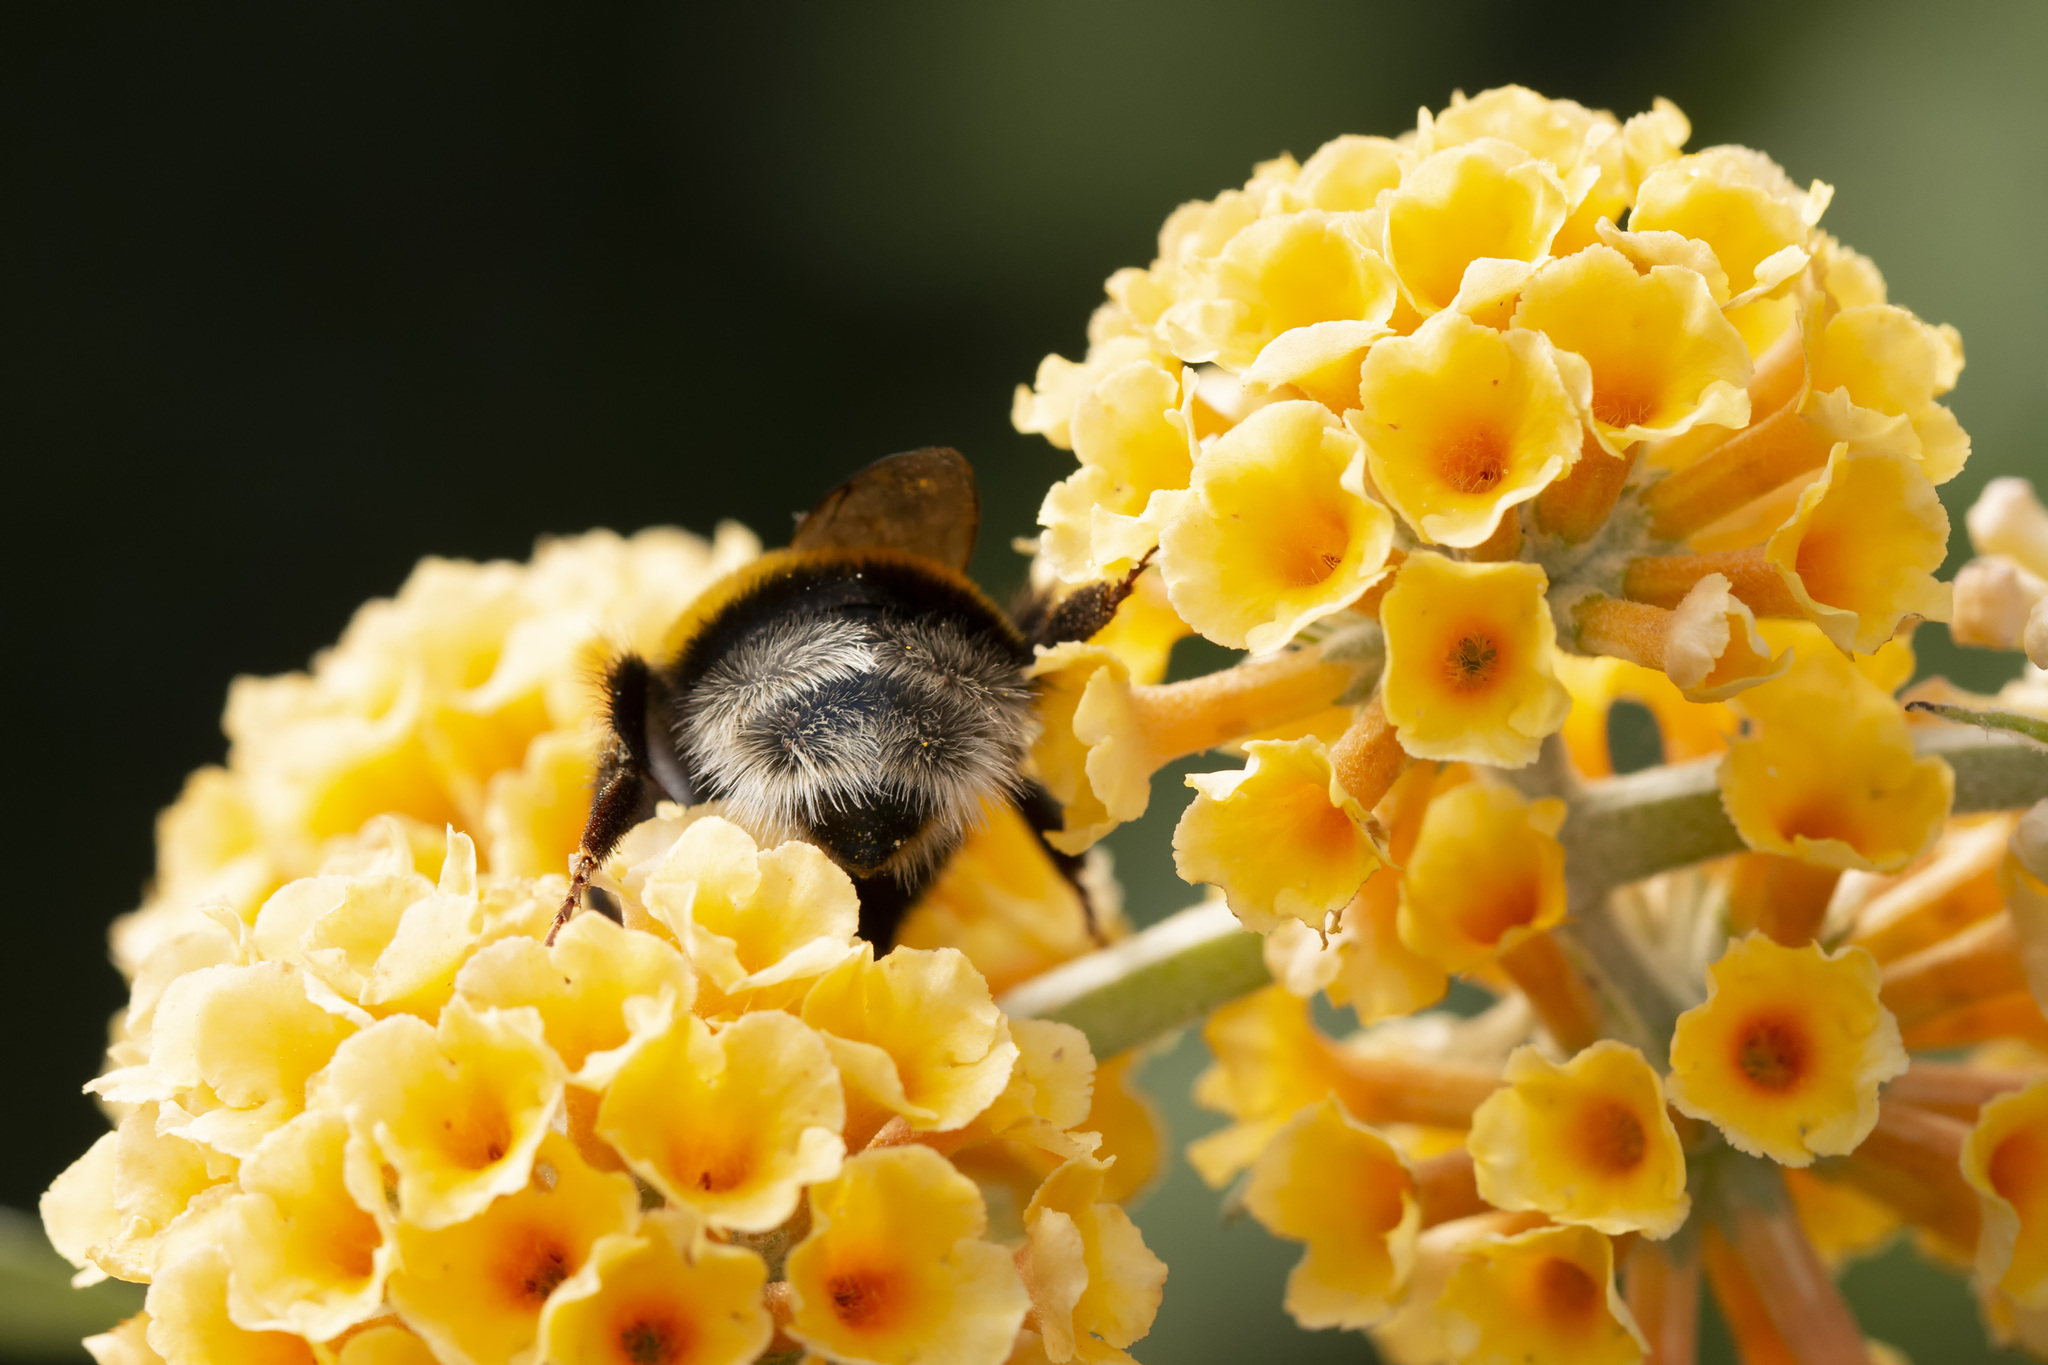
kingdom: Animalia
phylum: Arthropoda
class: Insecta
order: Hymenoptera
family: Apidae
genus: Bombus
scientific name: Bombus
